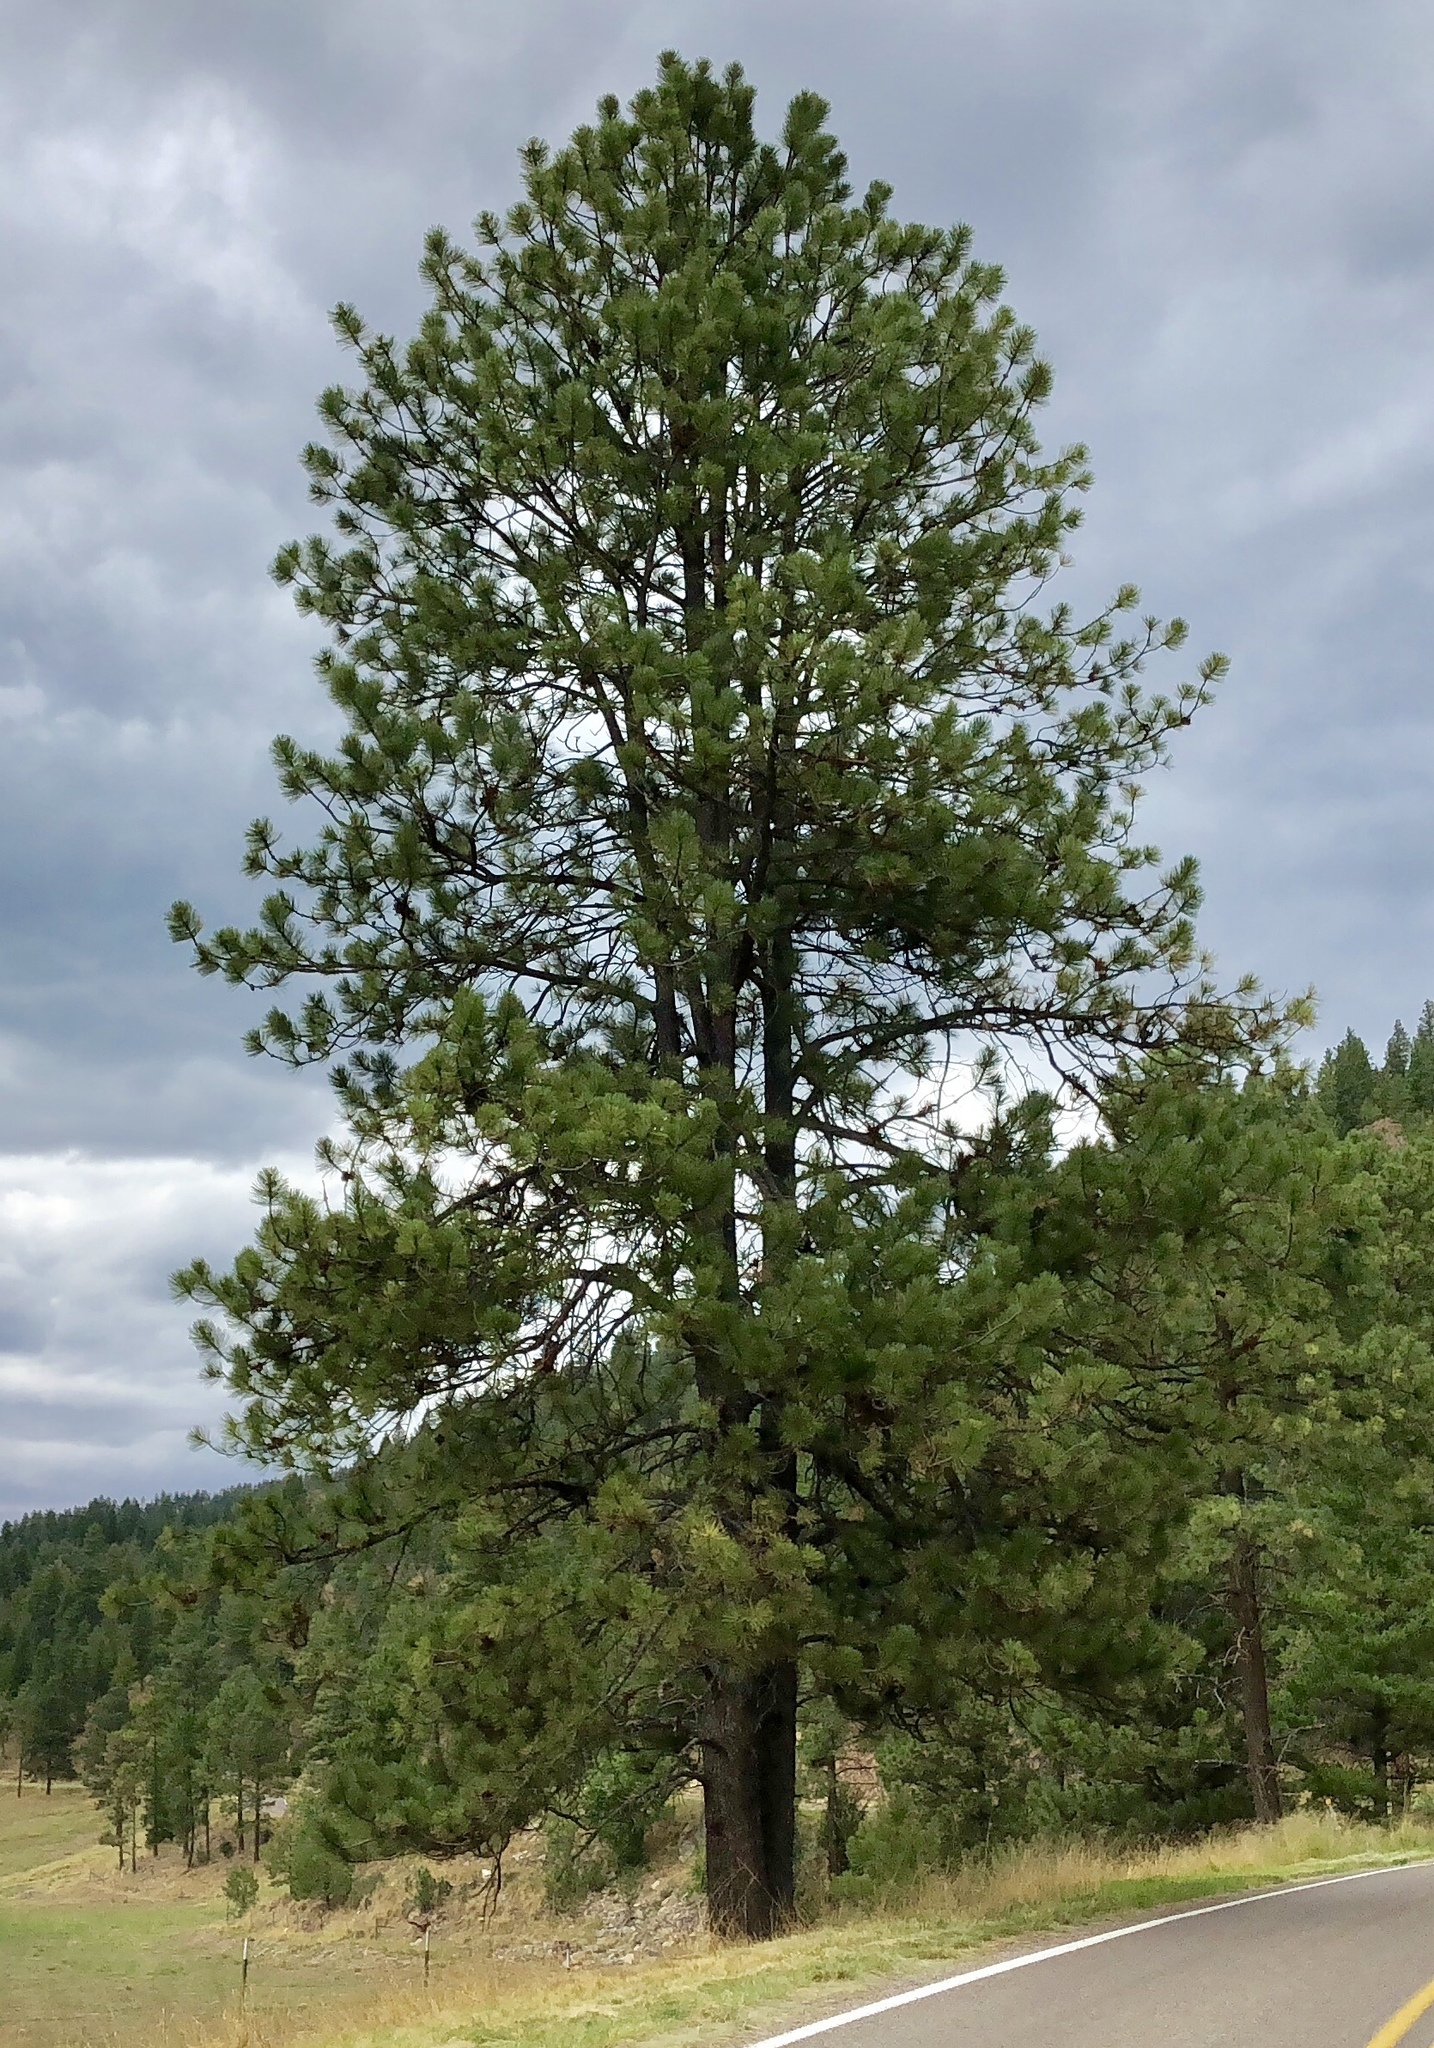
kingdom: Plantae
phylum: Tracheophyta
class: Pinopsida
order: Pinales
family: Pinaceae
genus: Pinus
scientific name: Pinus ponderosa
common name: Western yellow-pine
